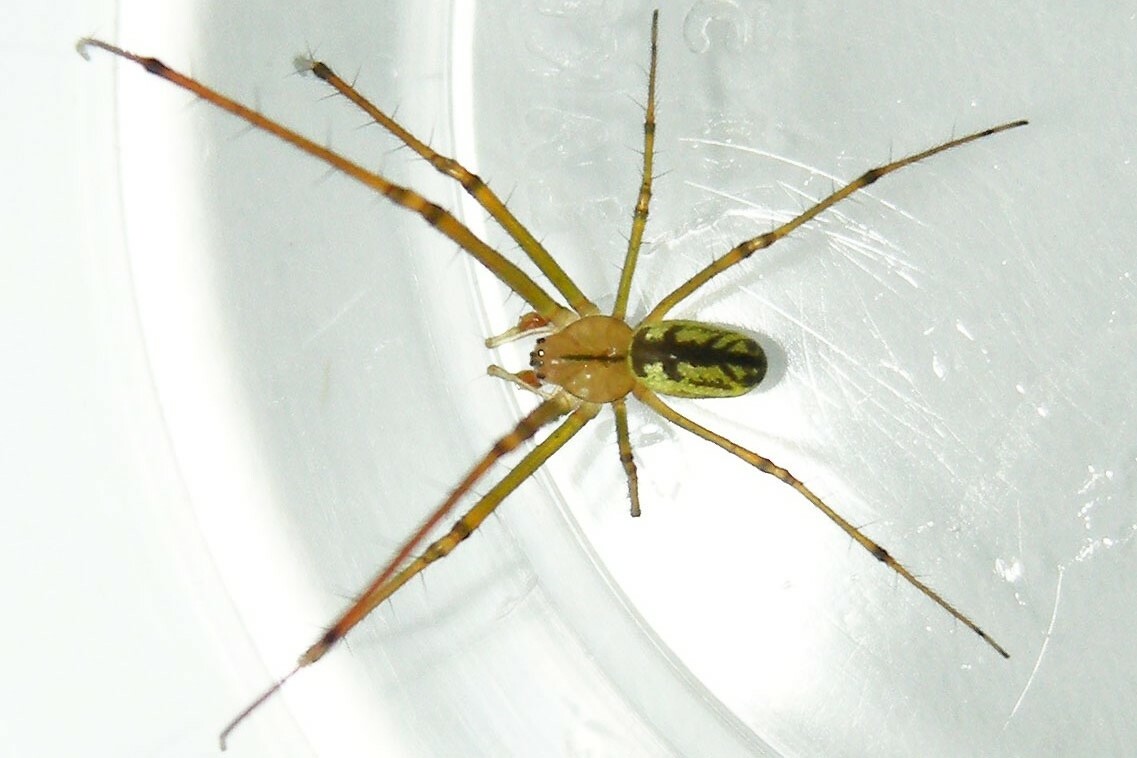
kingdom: Animalia
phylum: Arthropoda
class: Arachnida
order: Araneae
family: Tetragnathidae
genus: Leucauge
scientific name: Leucauge venusta
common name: Longjawed orb weavers
